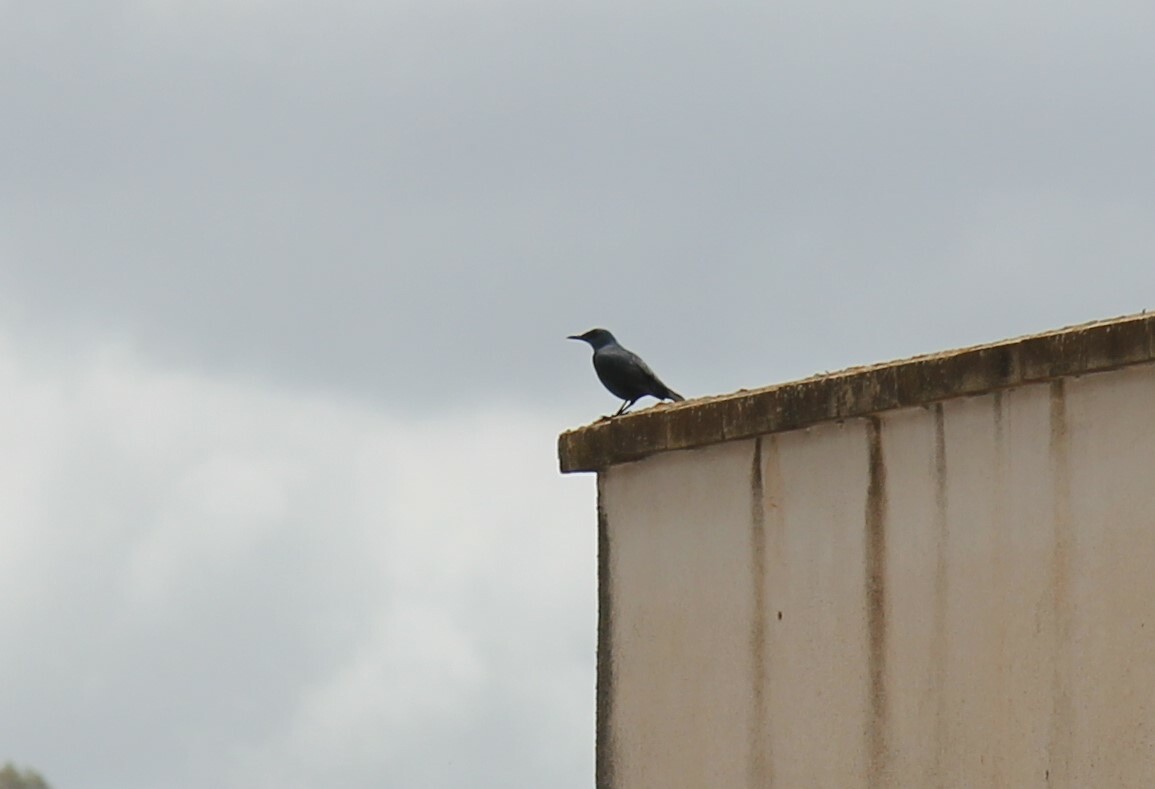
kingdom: Animalia
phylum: Chordata
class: Aves
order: Passeriformes
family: Muscicapidae
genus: Monticola
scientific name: Monticola solitarius
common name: Blue rock thrush
